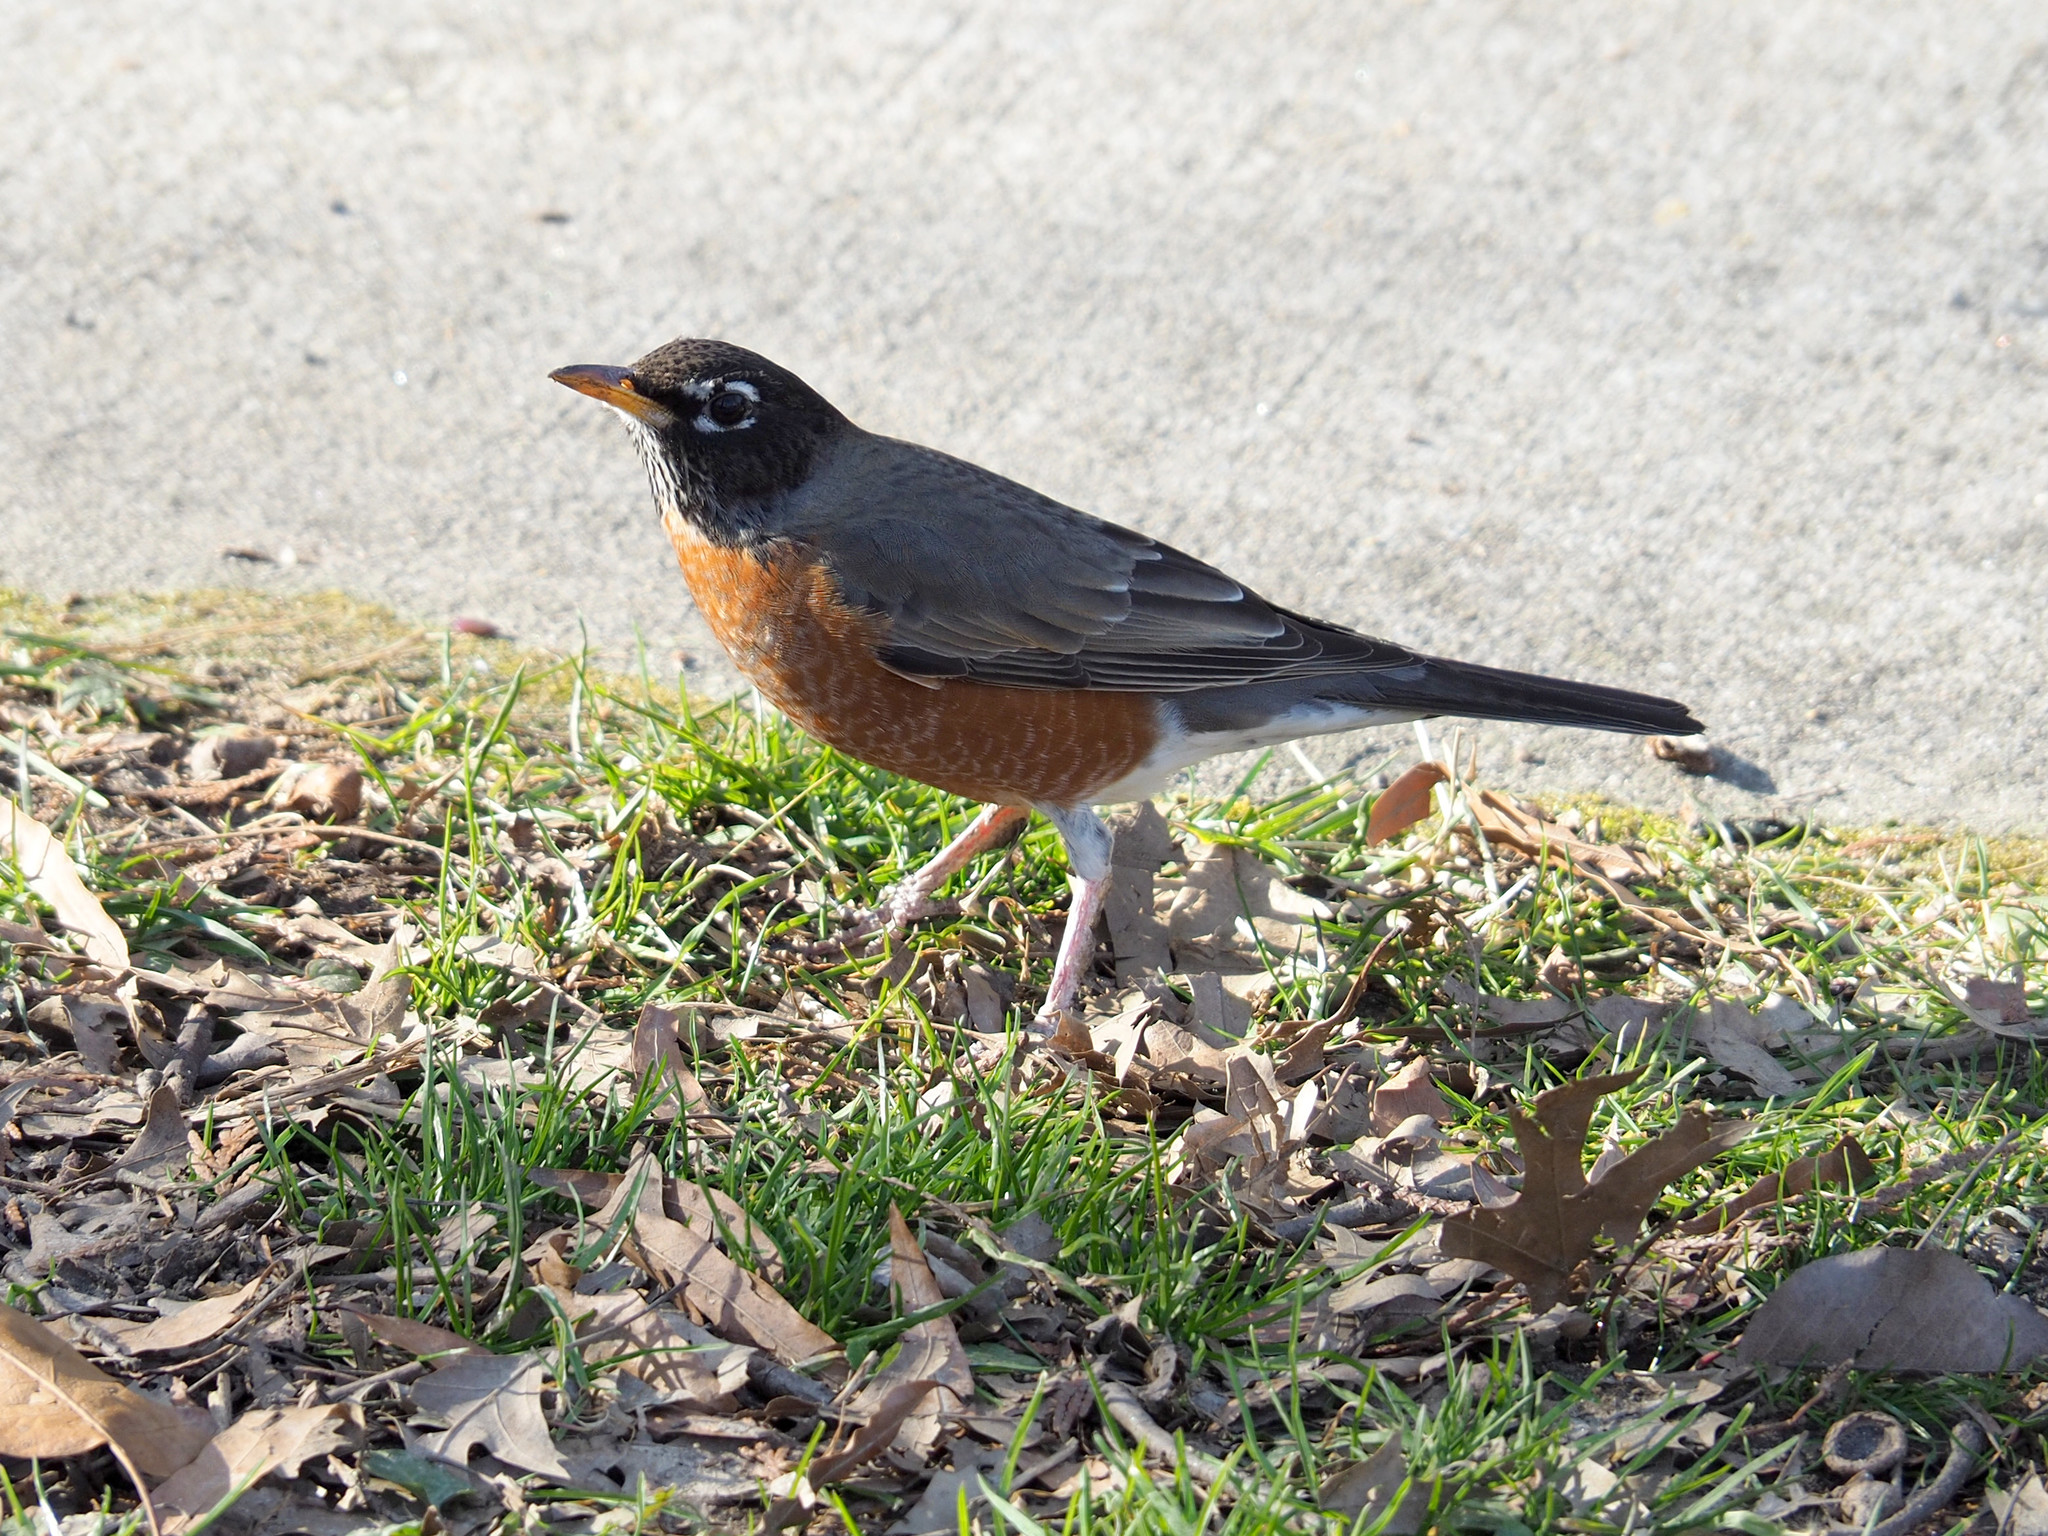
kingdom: Animalia
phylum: Chordata
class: Aves
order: Passeriformes
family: Turdidae
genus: Turdus
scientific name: Turdus migratorius
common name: American robin
